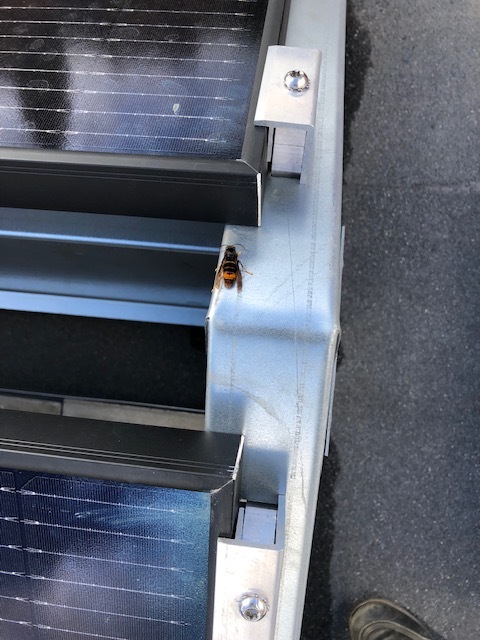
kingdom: Animalia
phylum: Arthropoda
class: Insecta
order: Hymenoptera
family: Vespidae
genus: Vespa
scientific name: Vespa velutina
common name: Asian hornet
